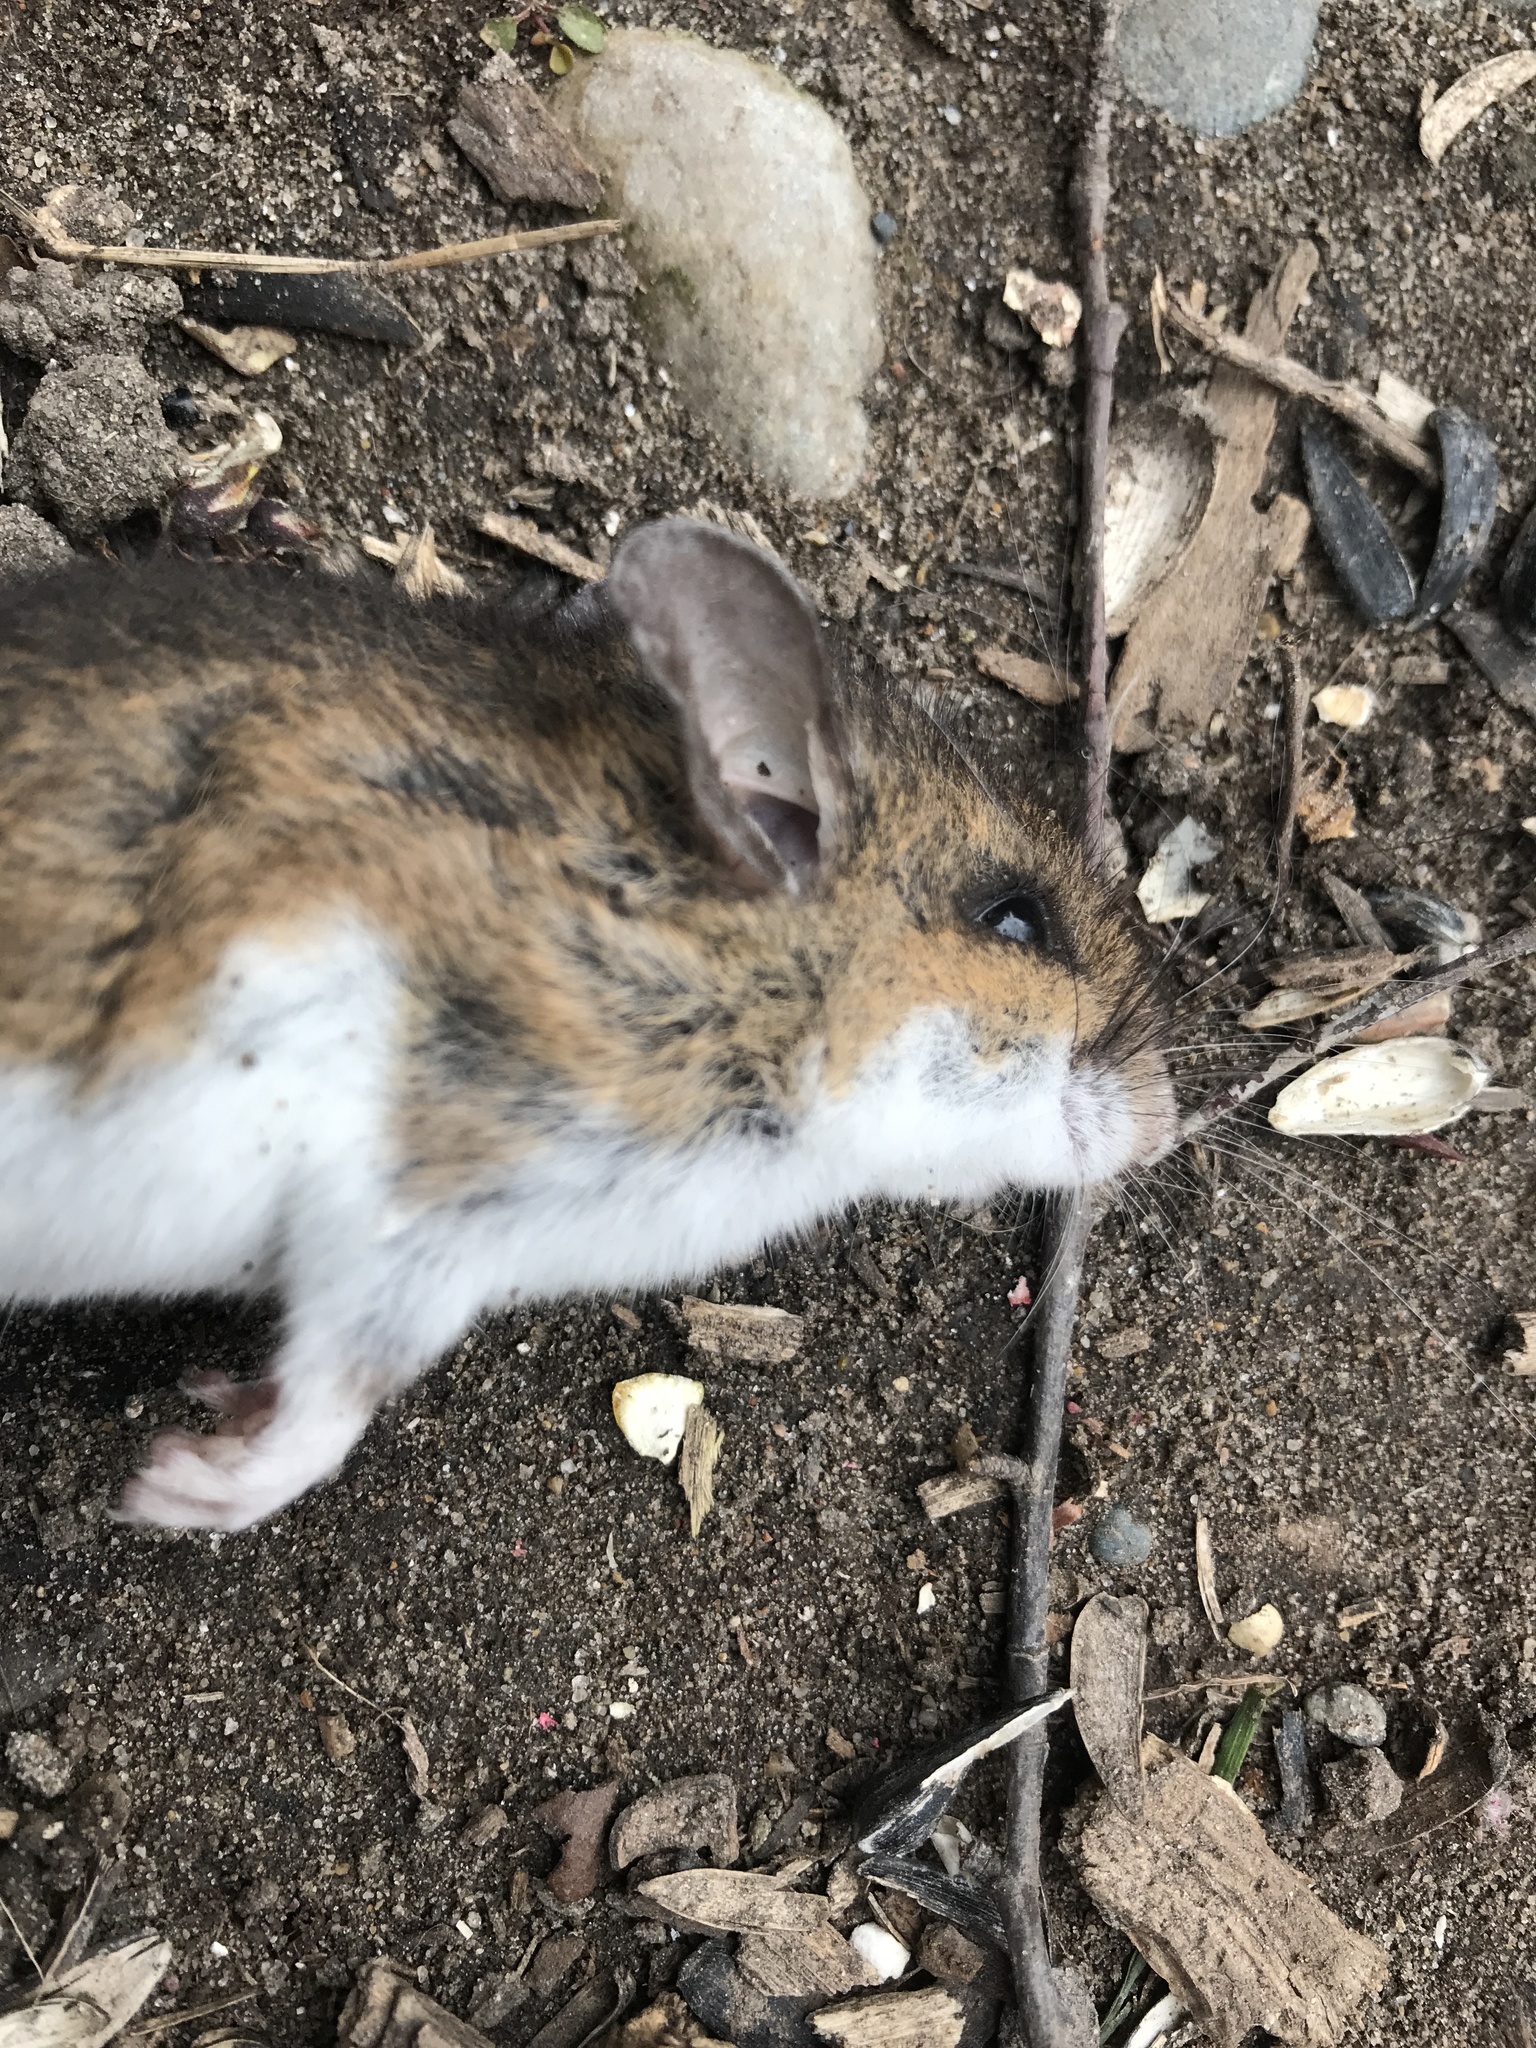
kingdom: Animalia
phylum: Chordata
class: Mammalia
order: Rodentia
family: Cricetidae
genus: Peromyscus
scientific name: Peromyscus leucopus
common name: White-footed deermouse
